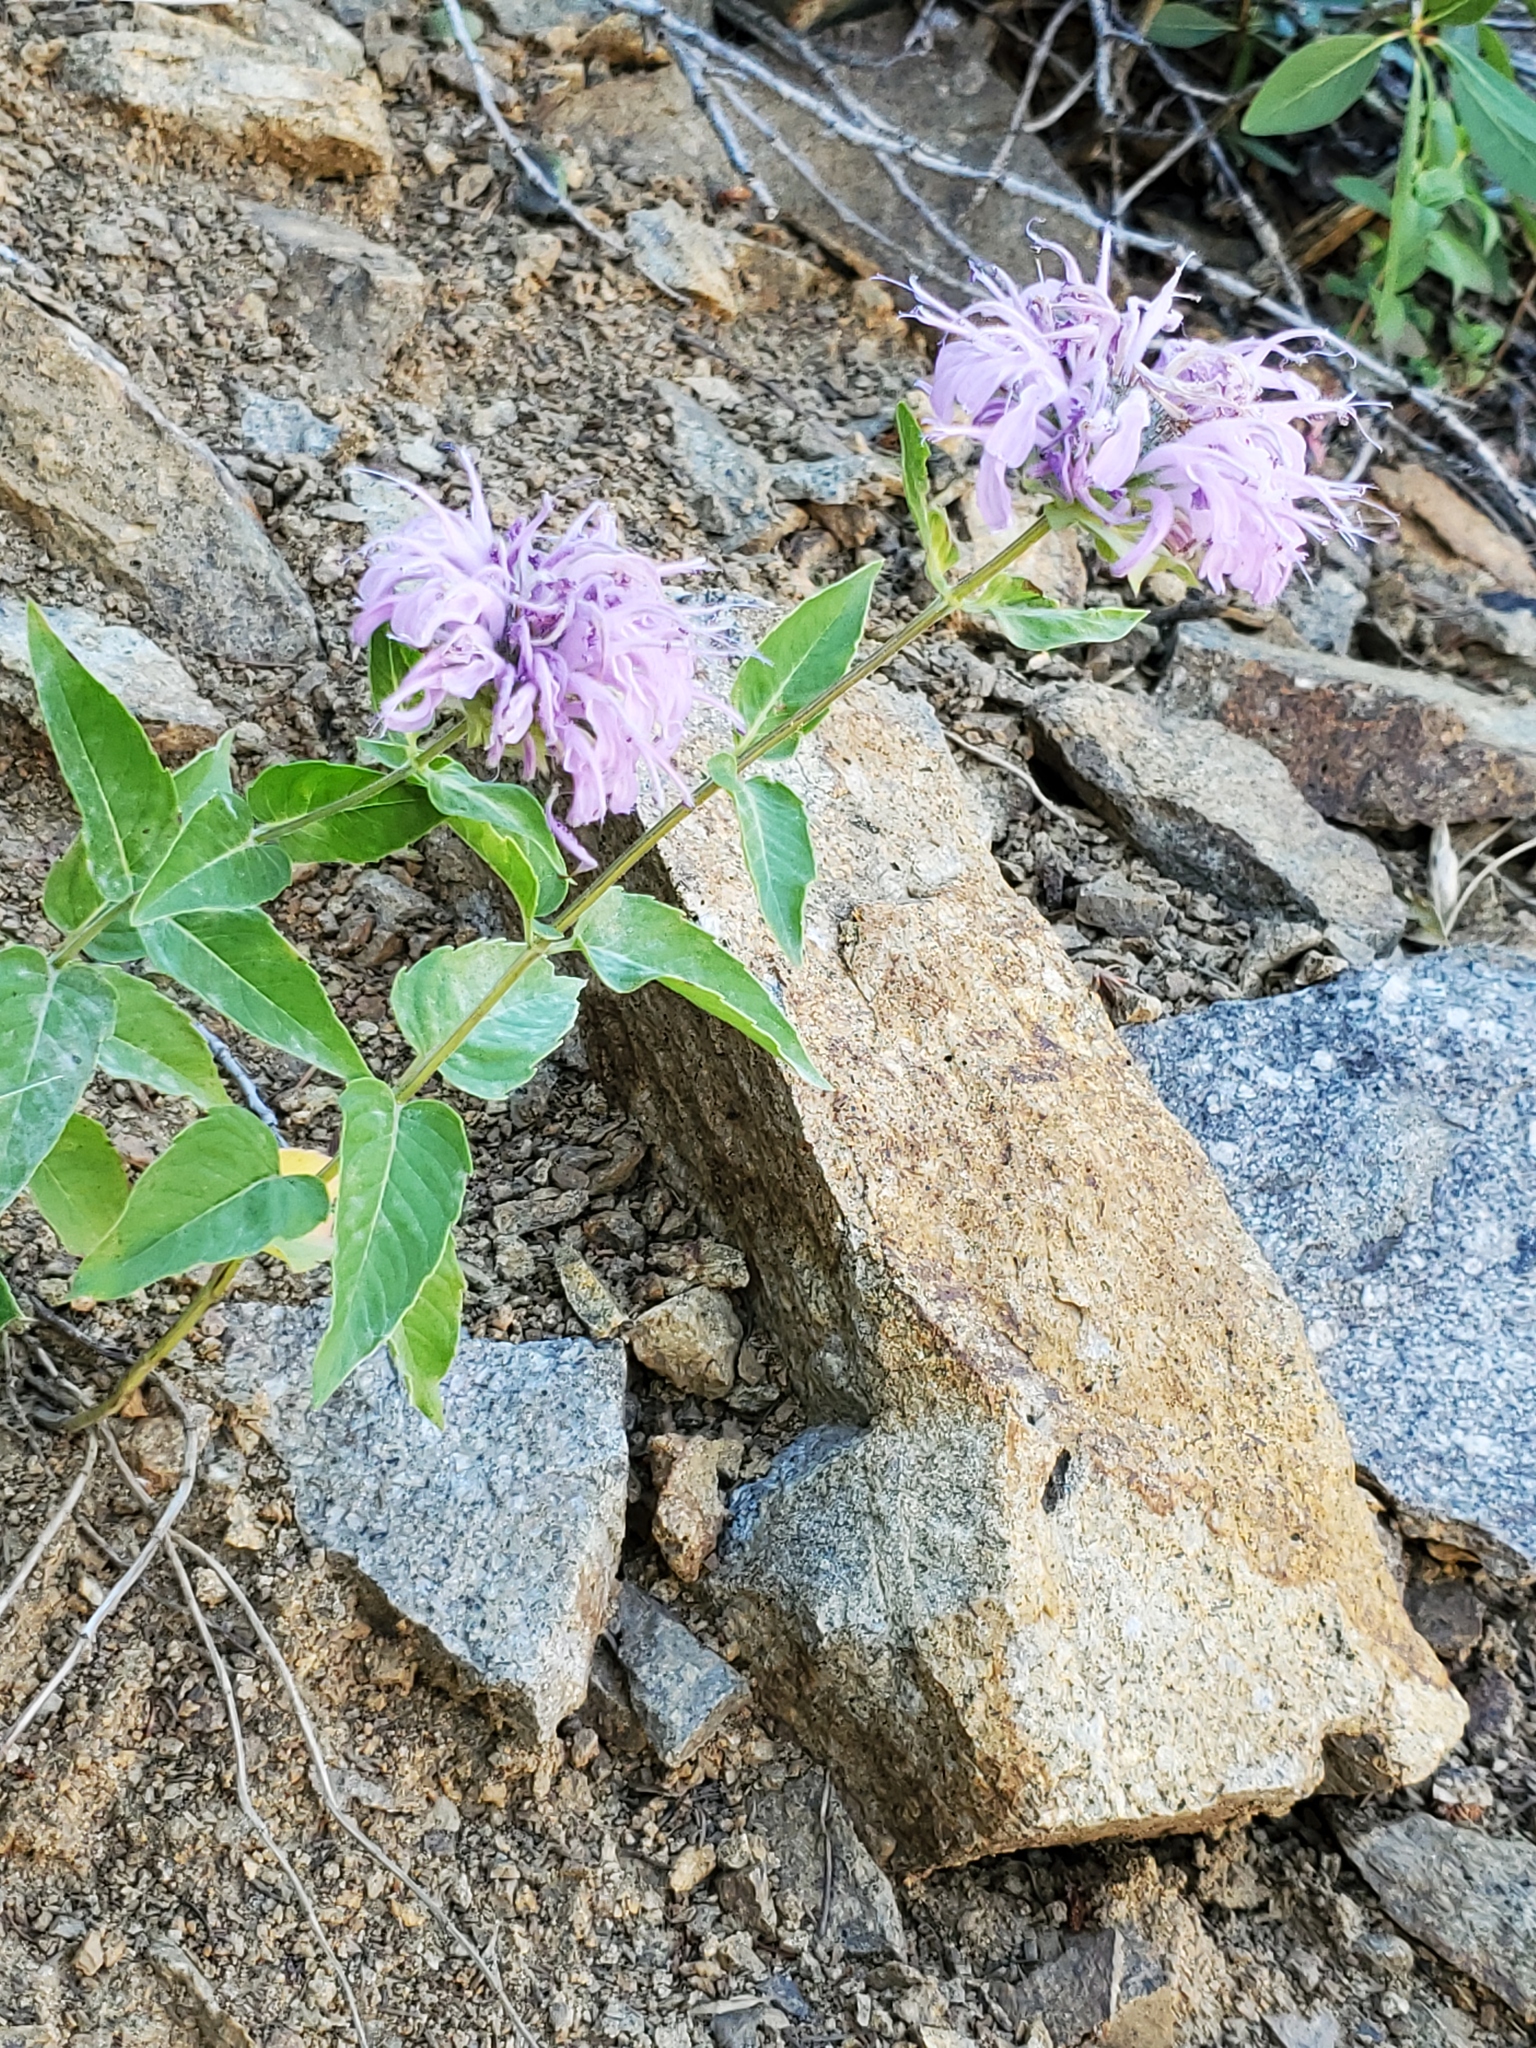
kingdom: Plantae
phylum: Tracheophyta
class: Magnoliopsida
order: Lamiales
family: Lamiaceae
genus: Monarda
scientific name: Monarda fistulosa
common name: Purple beebalm
